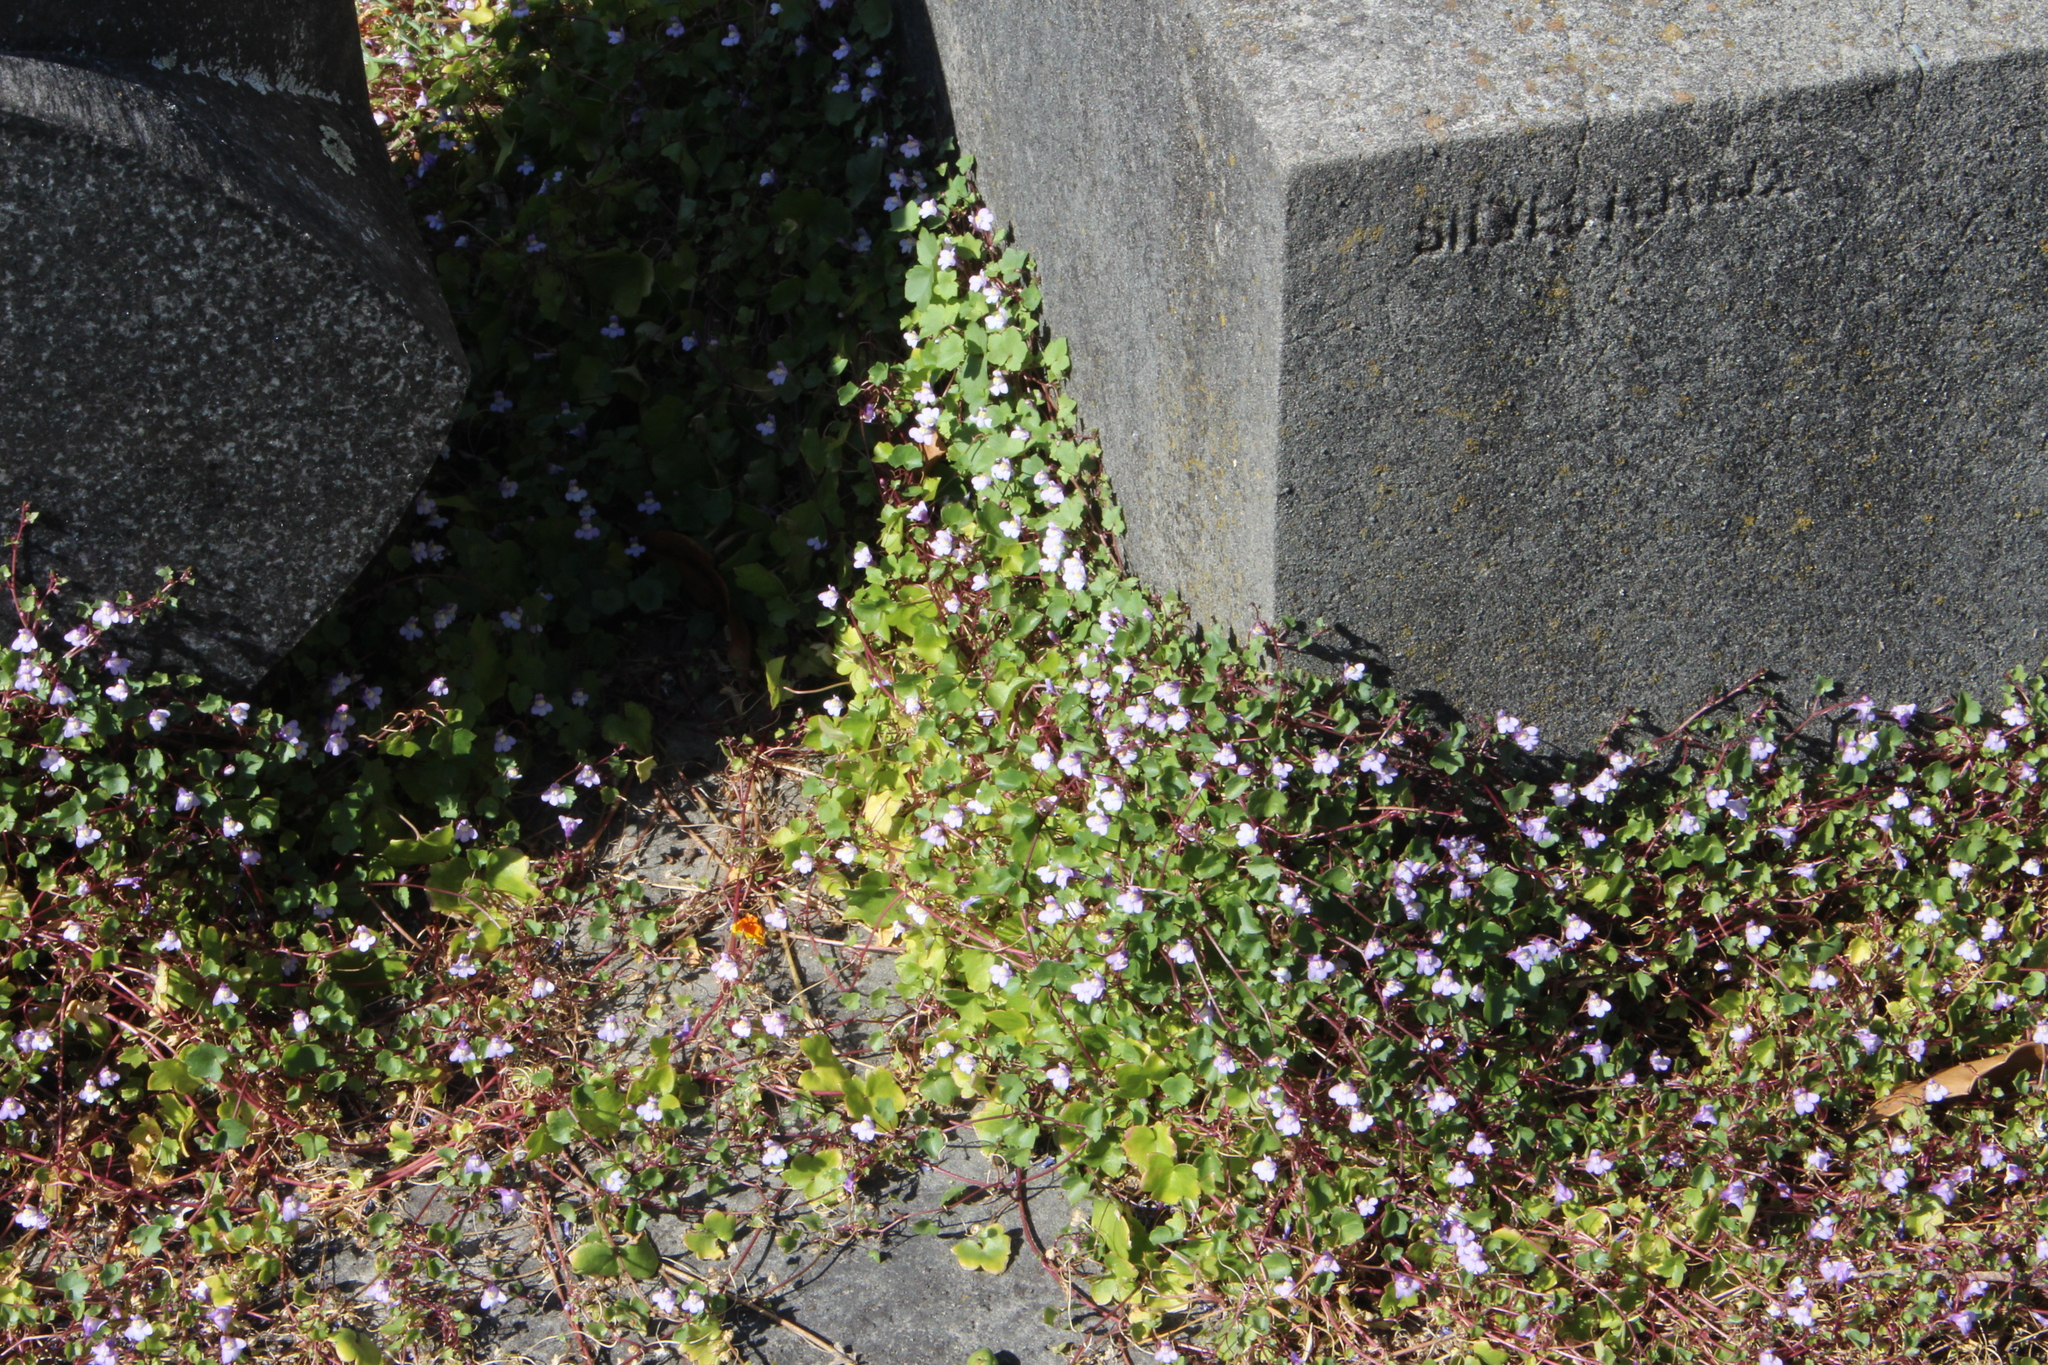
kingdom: Plantae
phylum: Tracheophyta
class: Magnoliopsida
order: Lamiales
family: Plantaginaceae
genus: Cymbalaria
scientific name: Cymbalaria muralis
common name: Ivy-leaved toadflax
